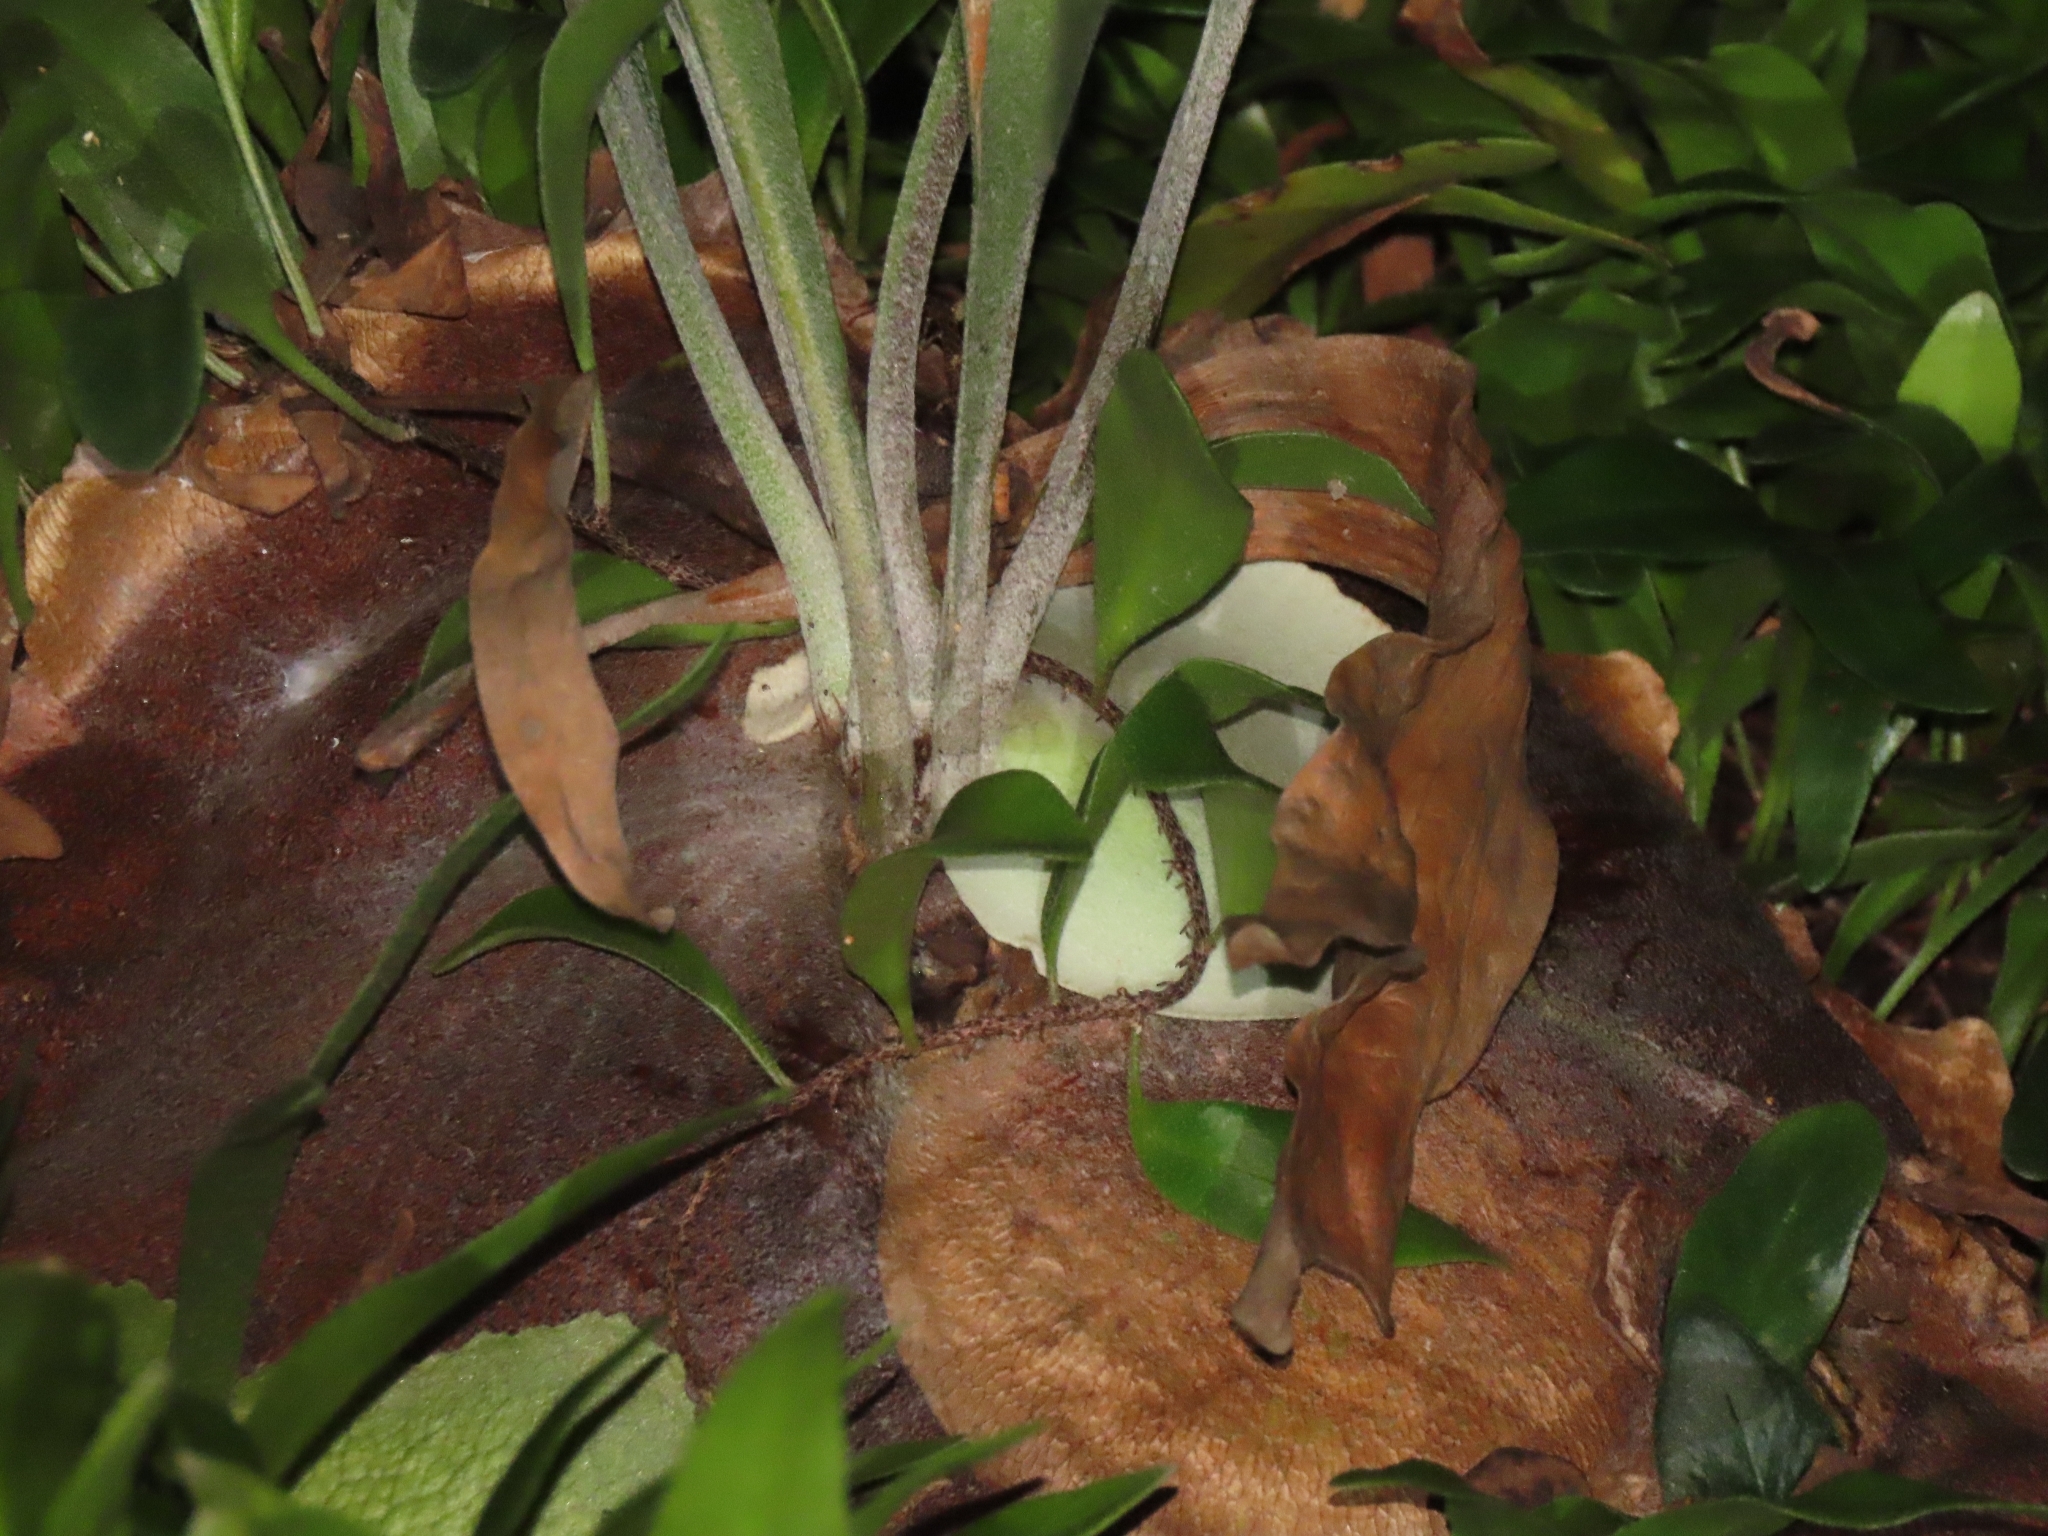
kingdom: Plantae
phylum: Tracheophyta
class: Polypodiopsida
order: Polypodiales
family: Polypodiaceae
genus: Platycerium
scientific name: Platycerium bifurcatum
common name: Elkhorn fern
